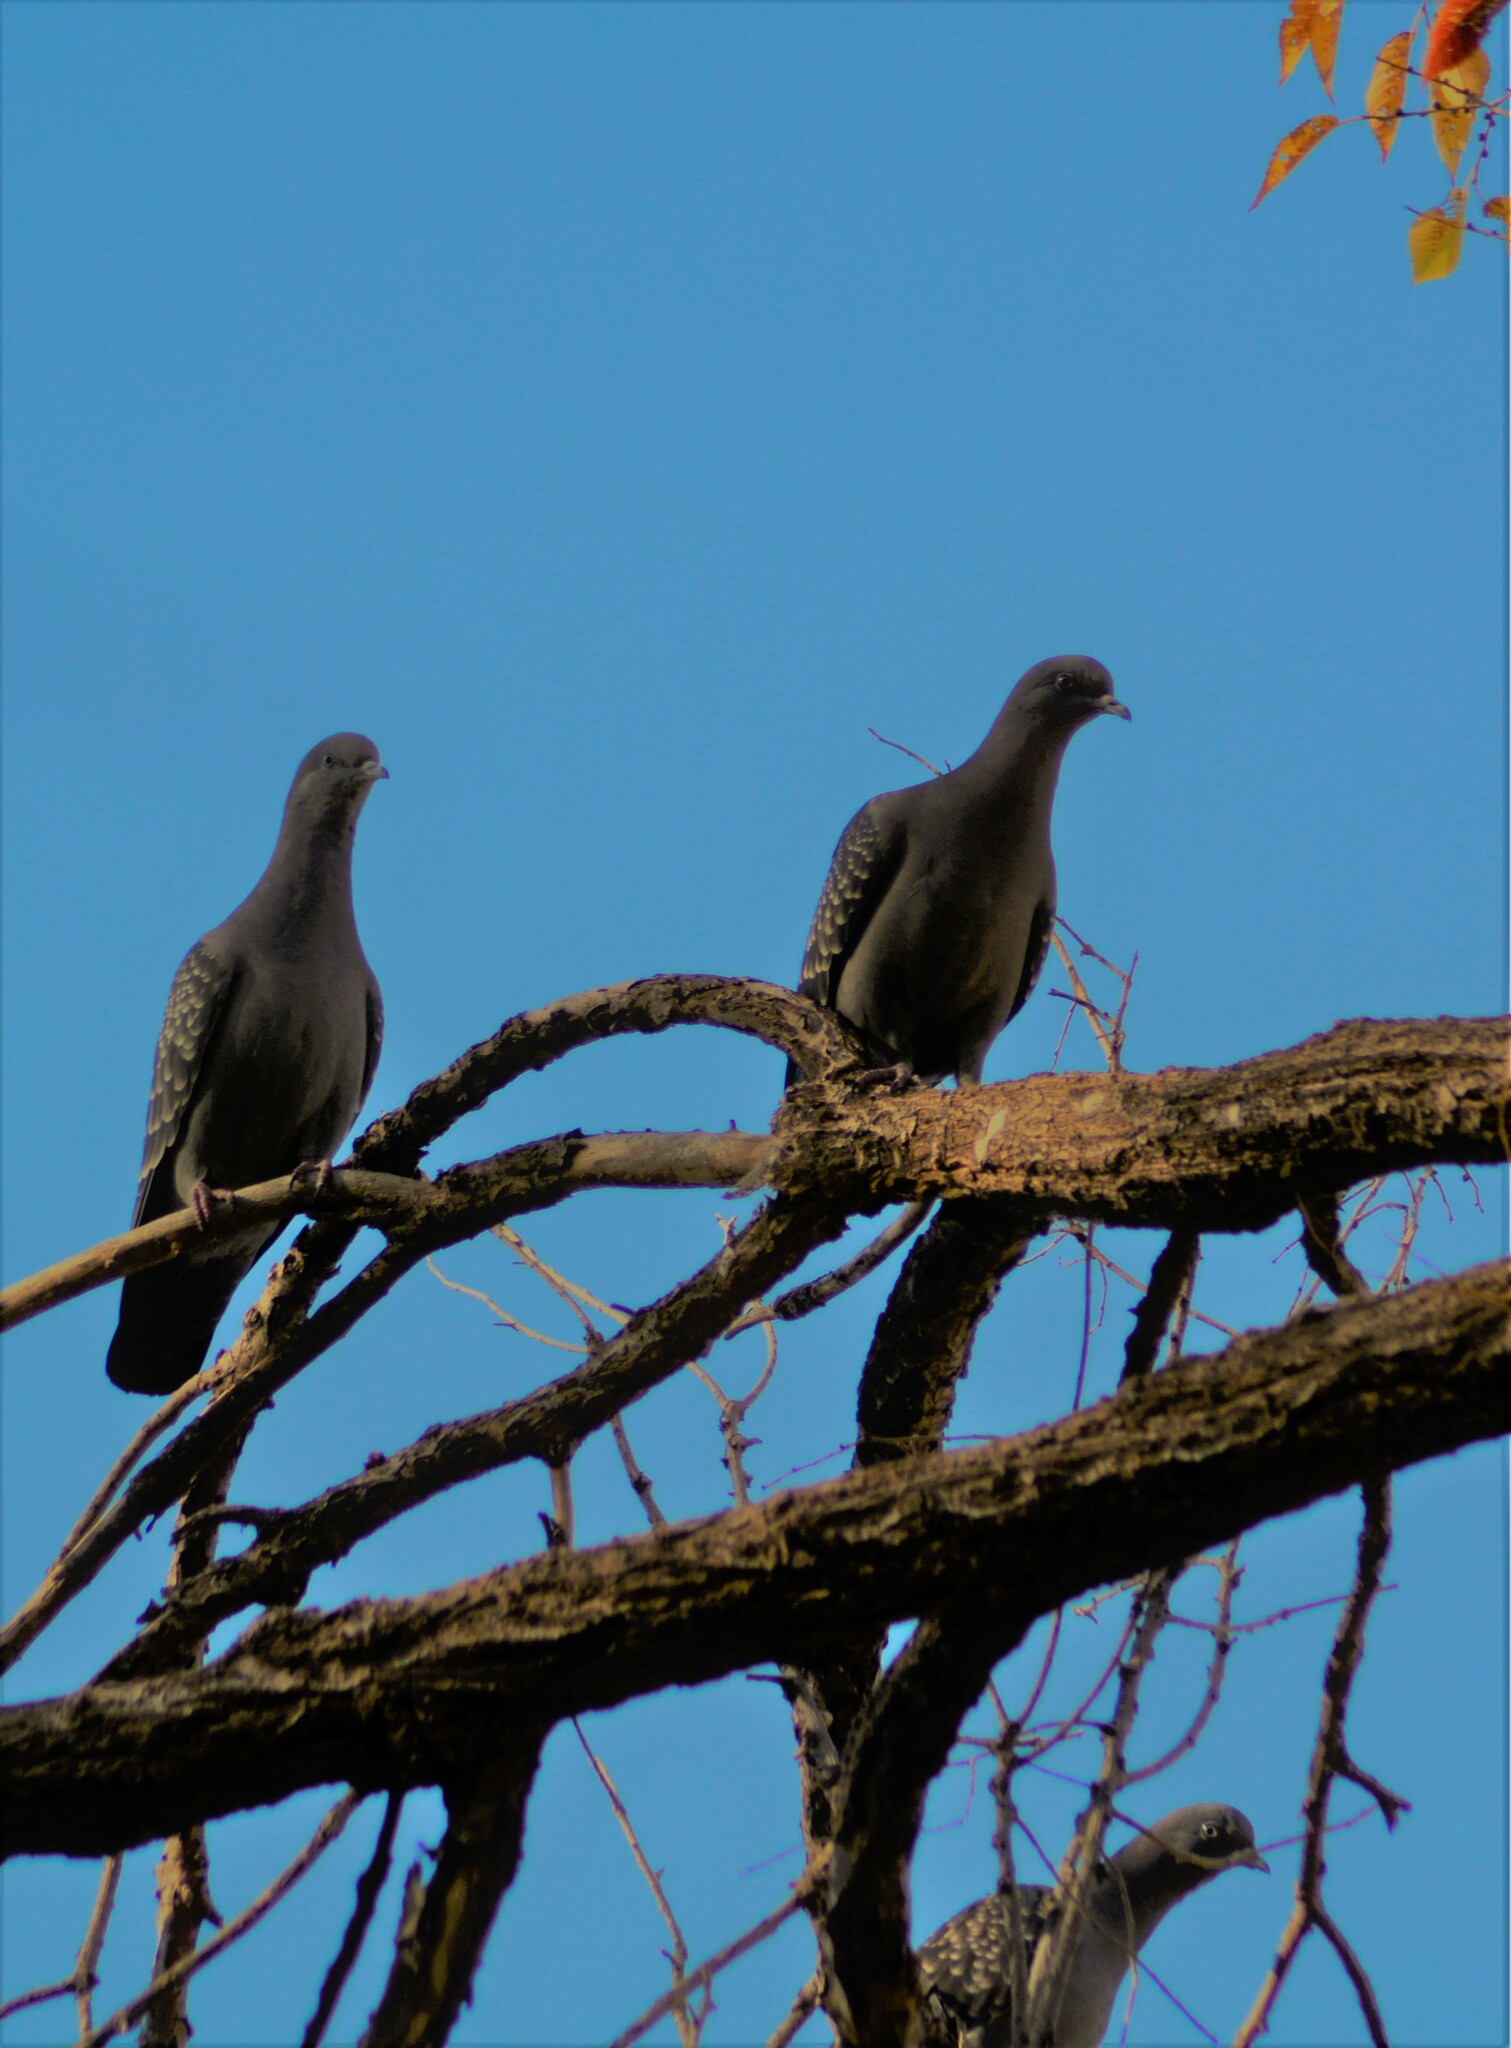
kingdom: Animalia
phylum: Chordata
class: Aves
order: Columbiformes
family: Columbidae
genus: Patagioenas
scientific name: Patagioenas maculosa
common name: Spot-winged pigeon
